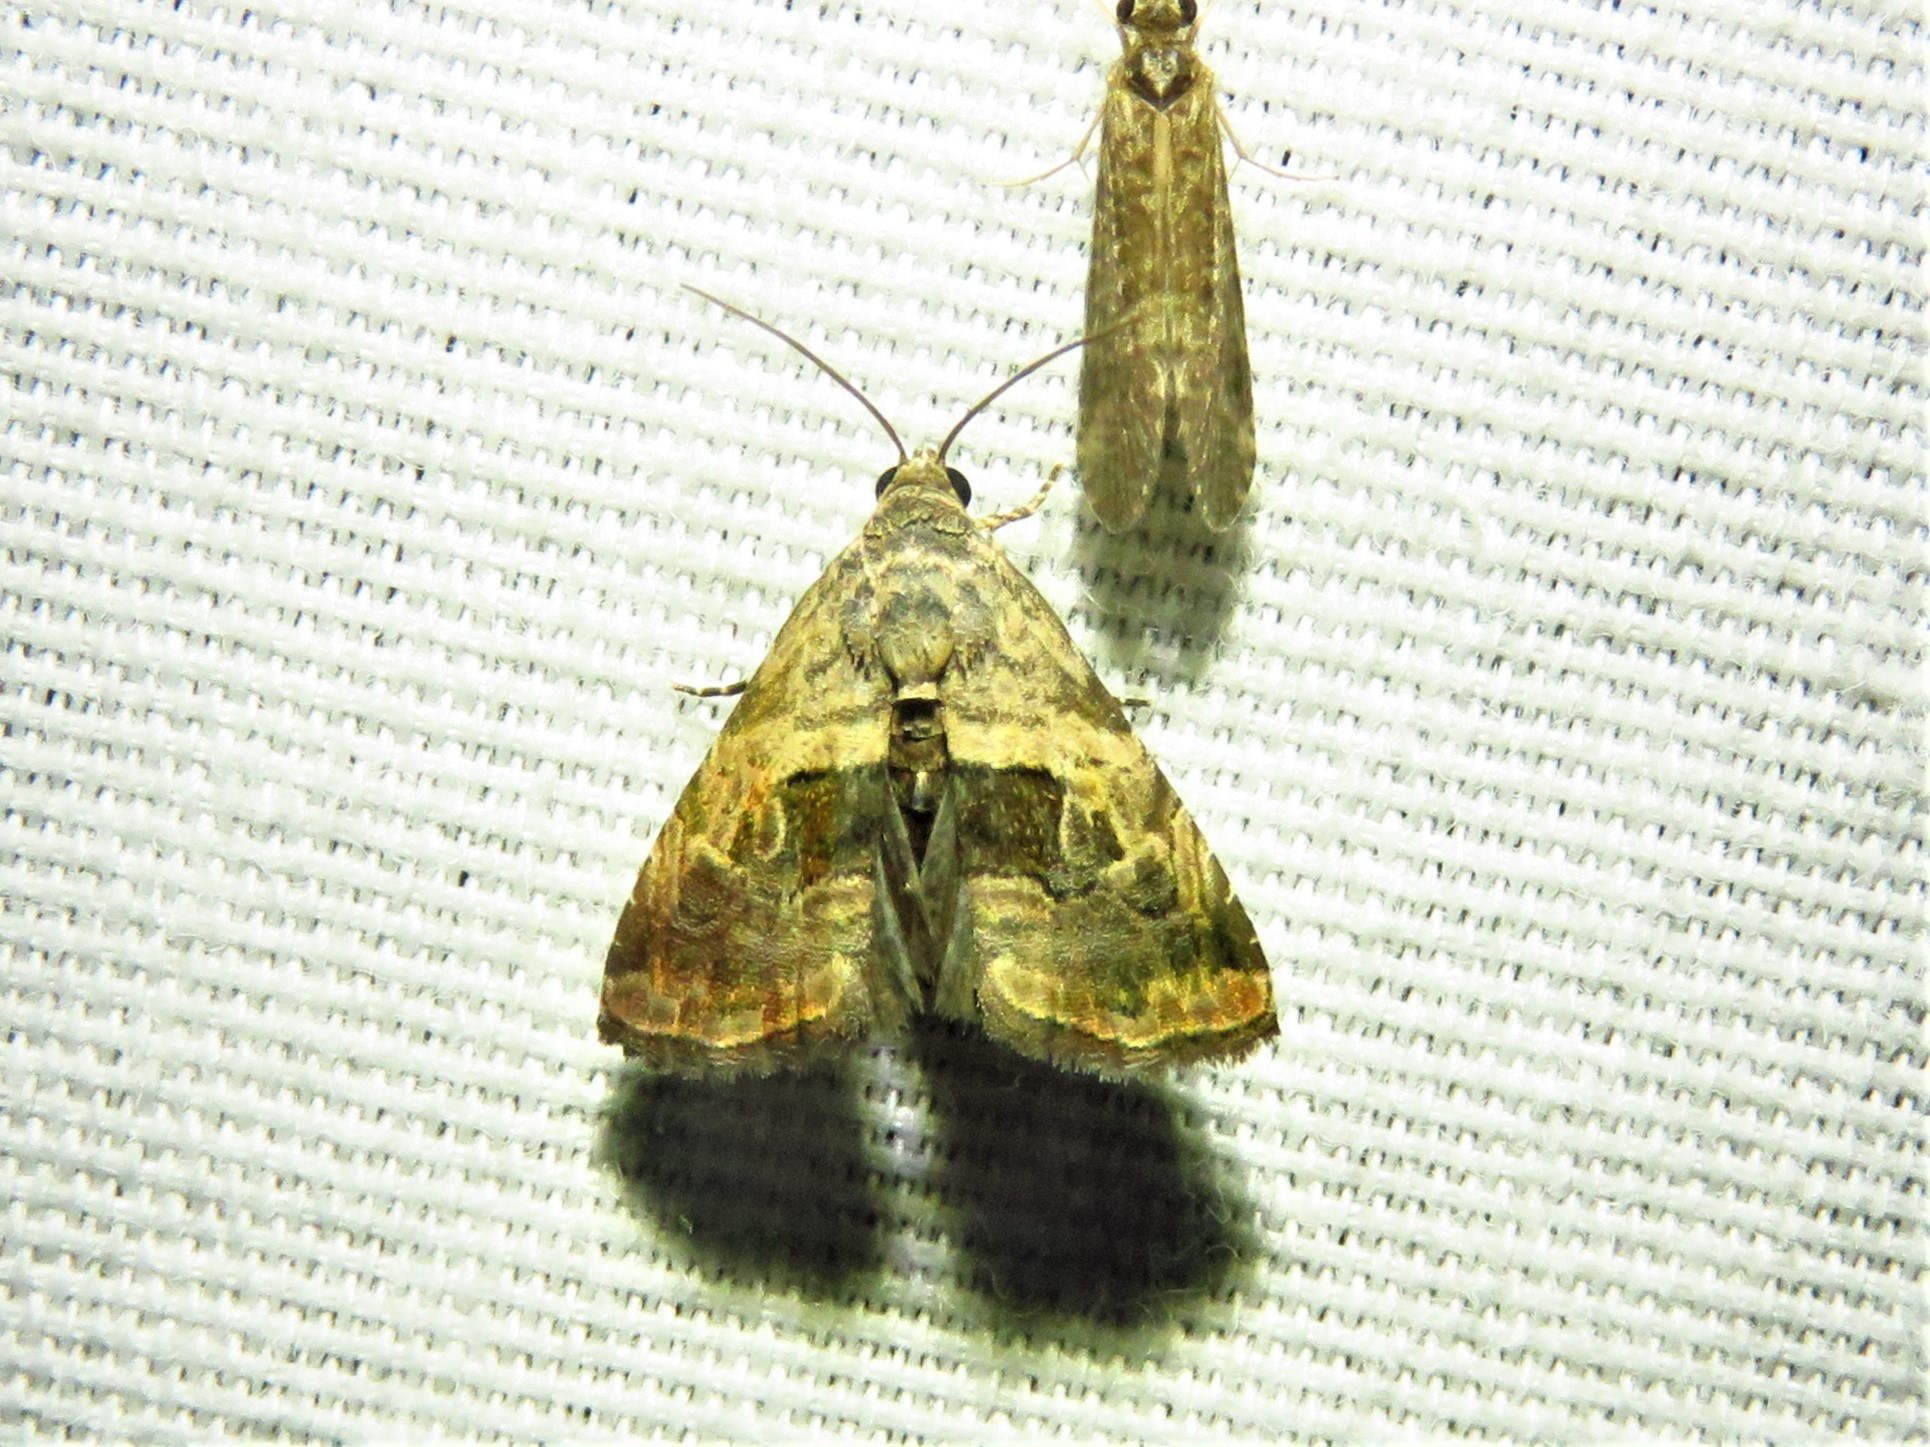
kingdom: Animalia
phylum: Arthropoda
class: Insecta
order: Lepidoptera
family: Noctuidae
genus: Tripudia
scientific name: Tripudia quadrifera
